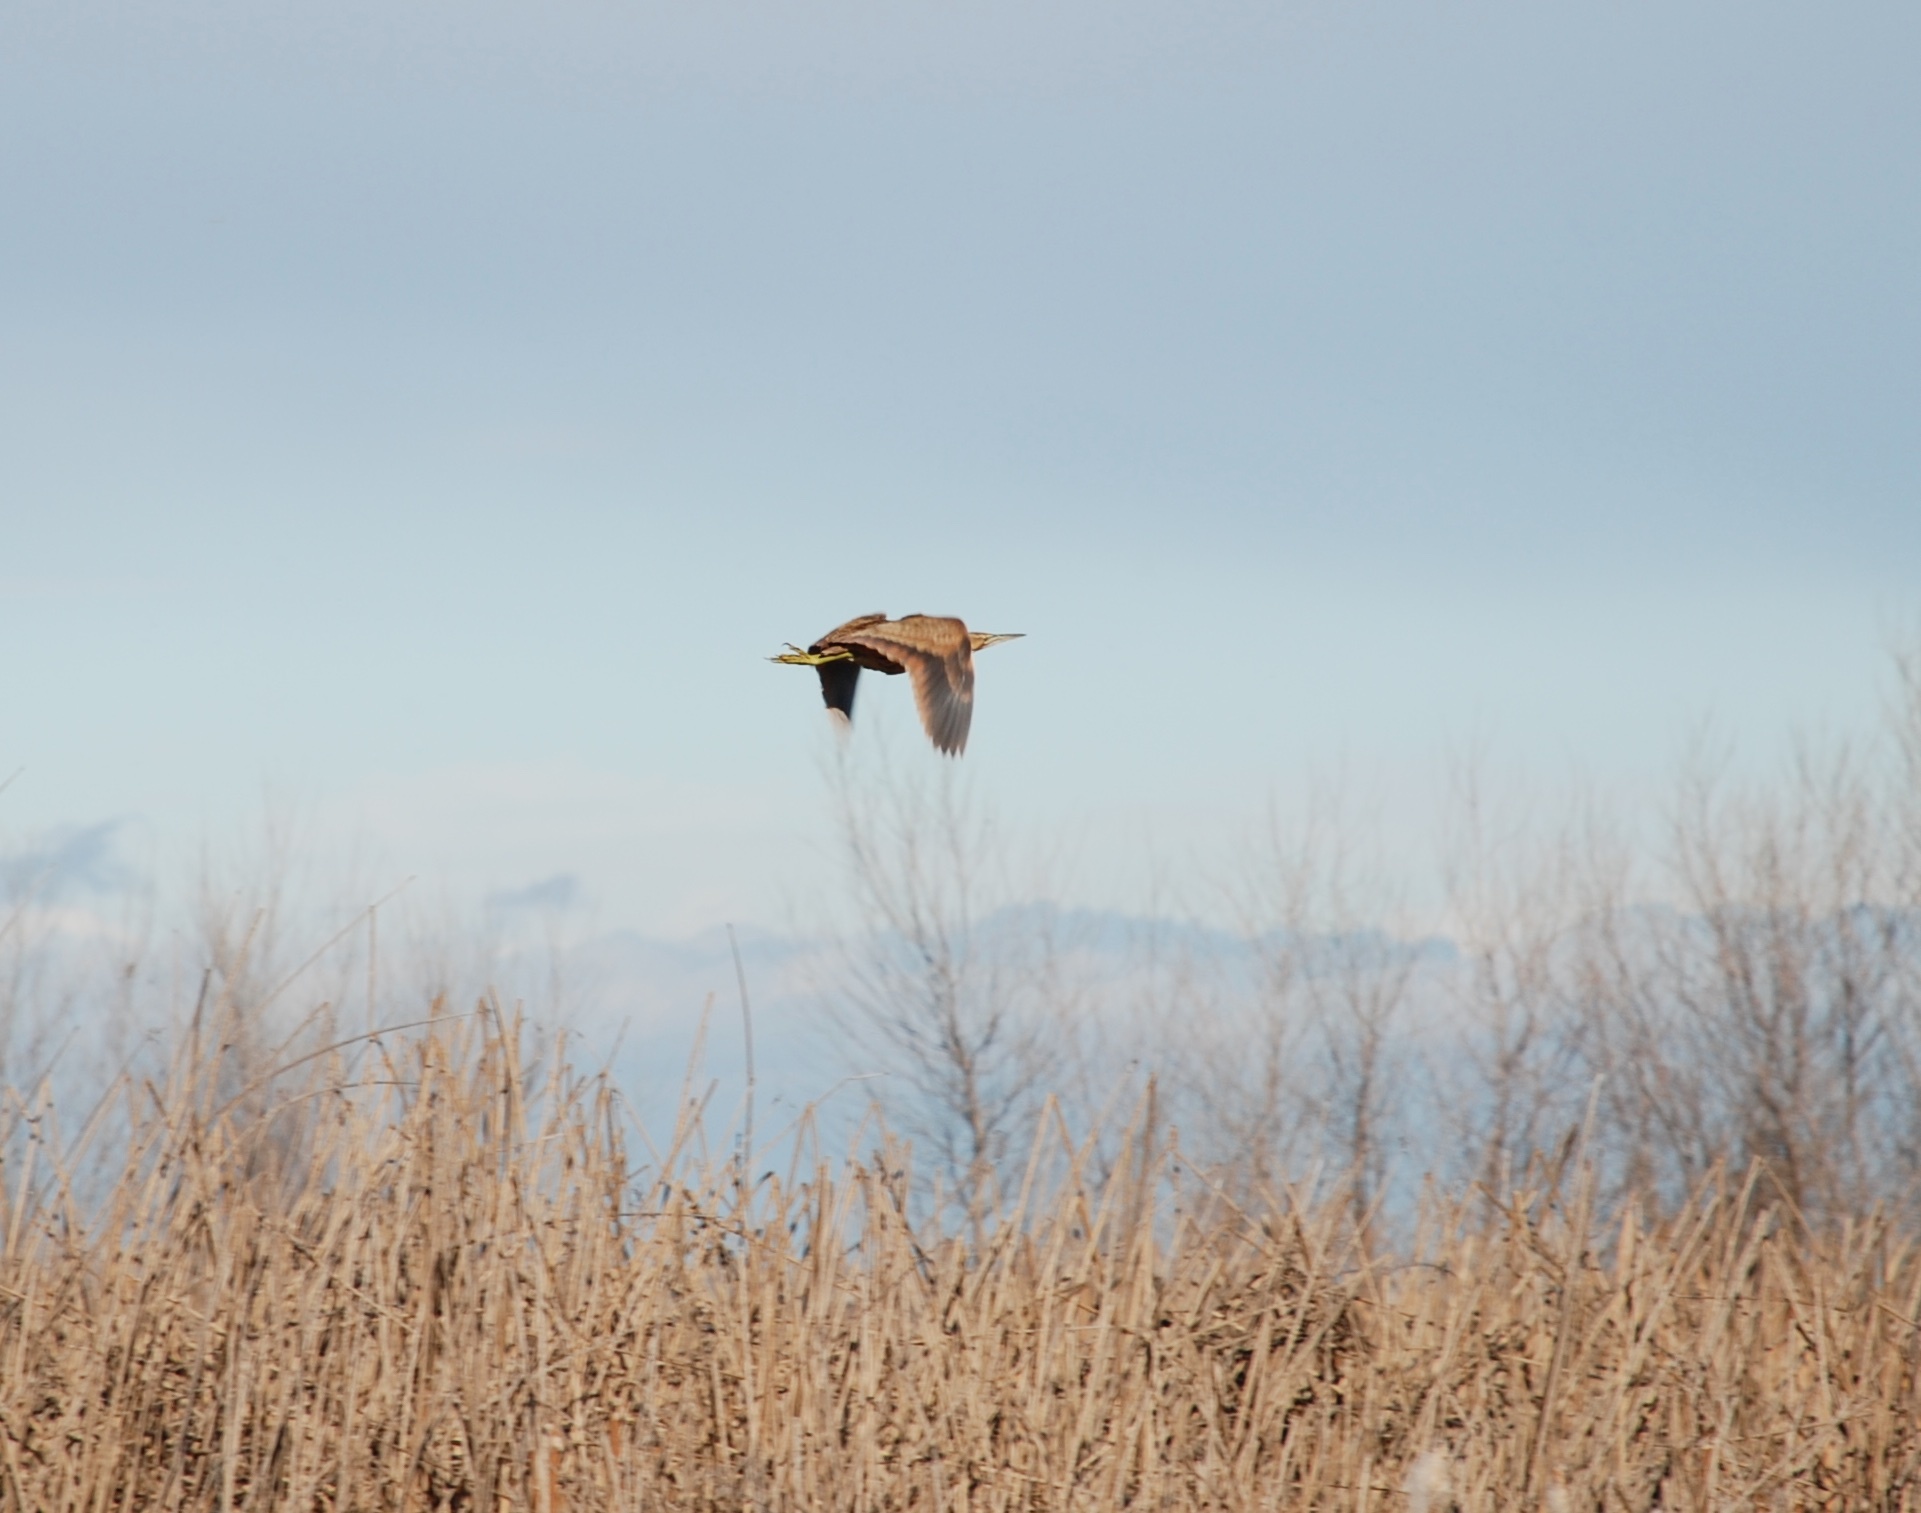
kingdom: Animalia
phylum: Chordata
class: Aves
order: Pelecaniformes
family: Ardeidae
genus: Botaurus
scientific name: Botaurus lentiginosus
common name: American bittern
